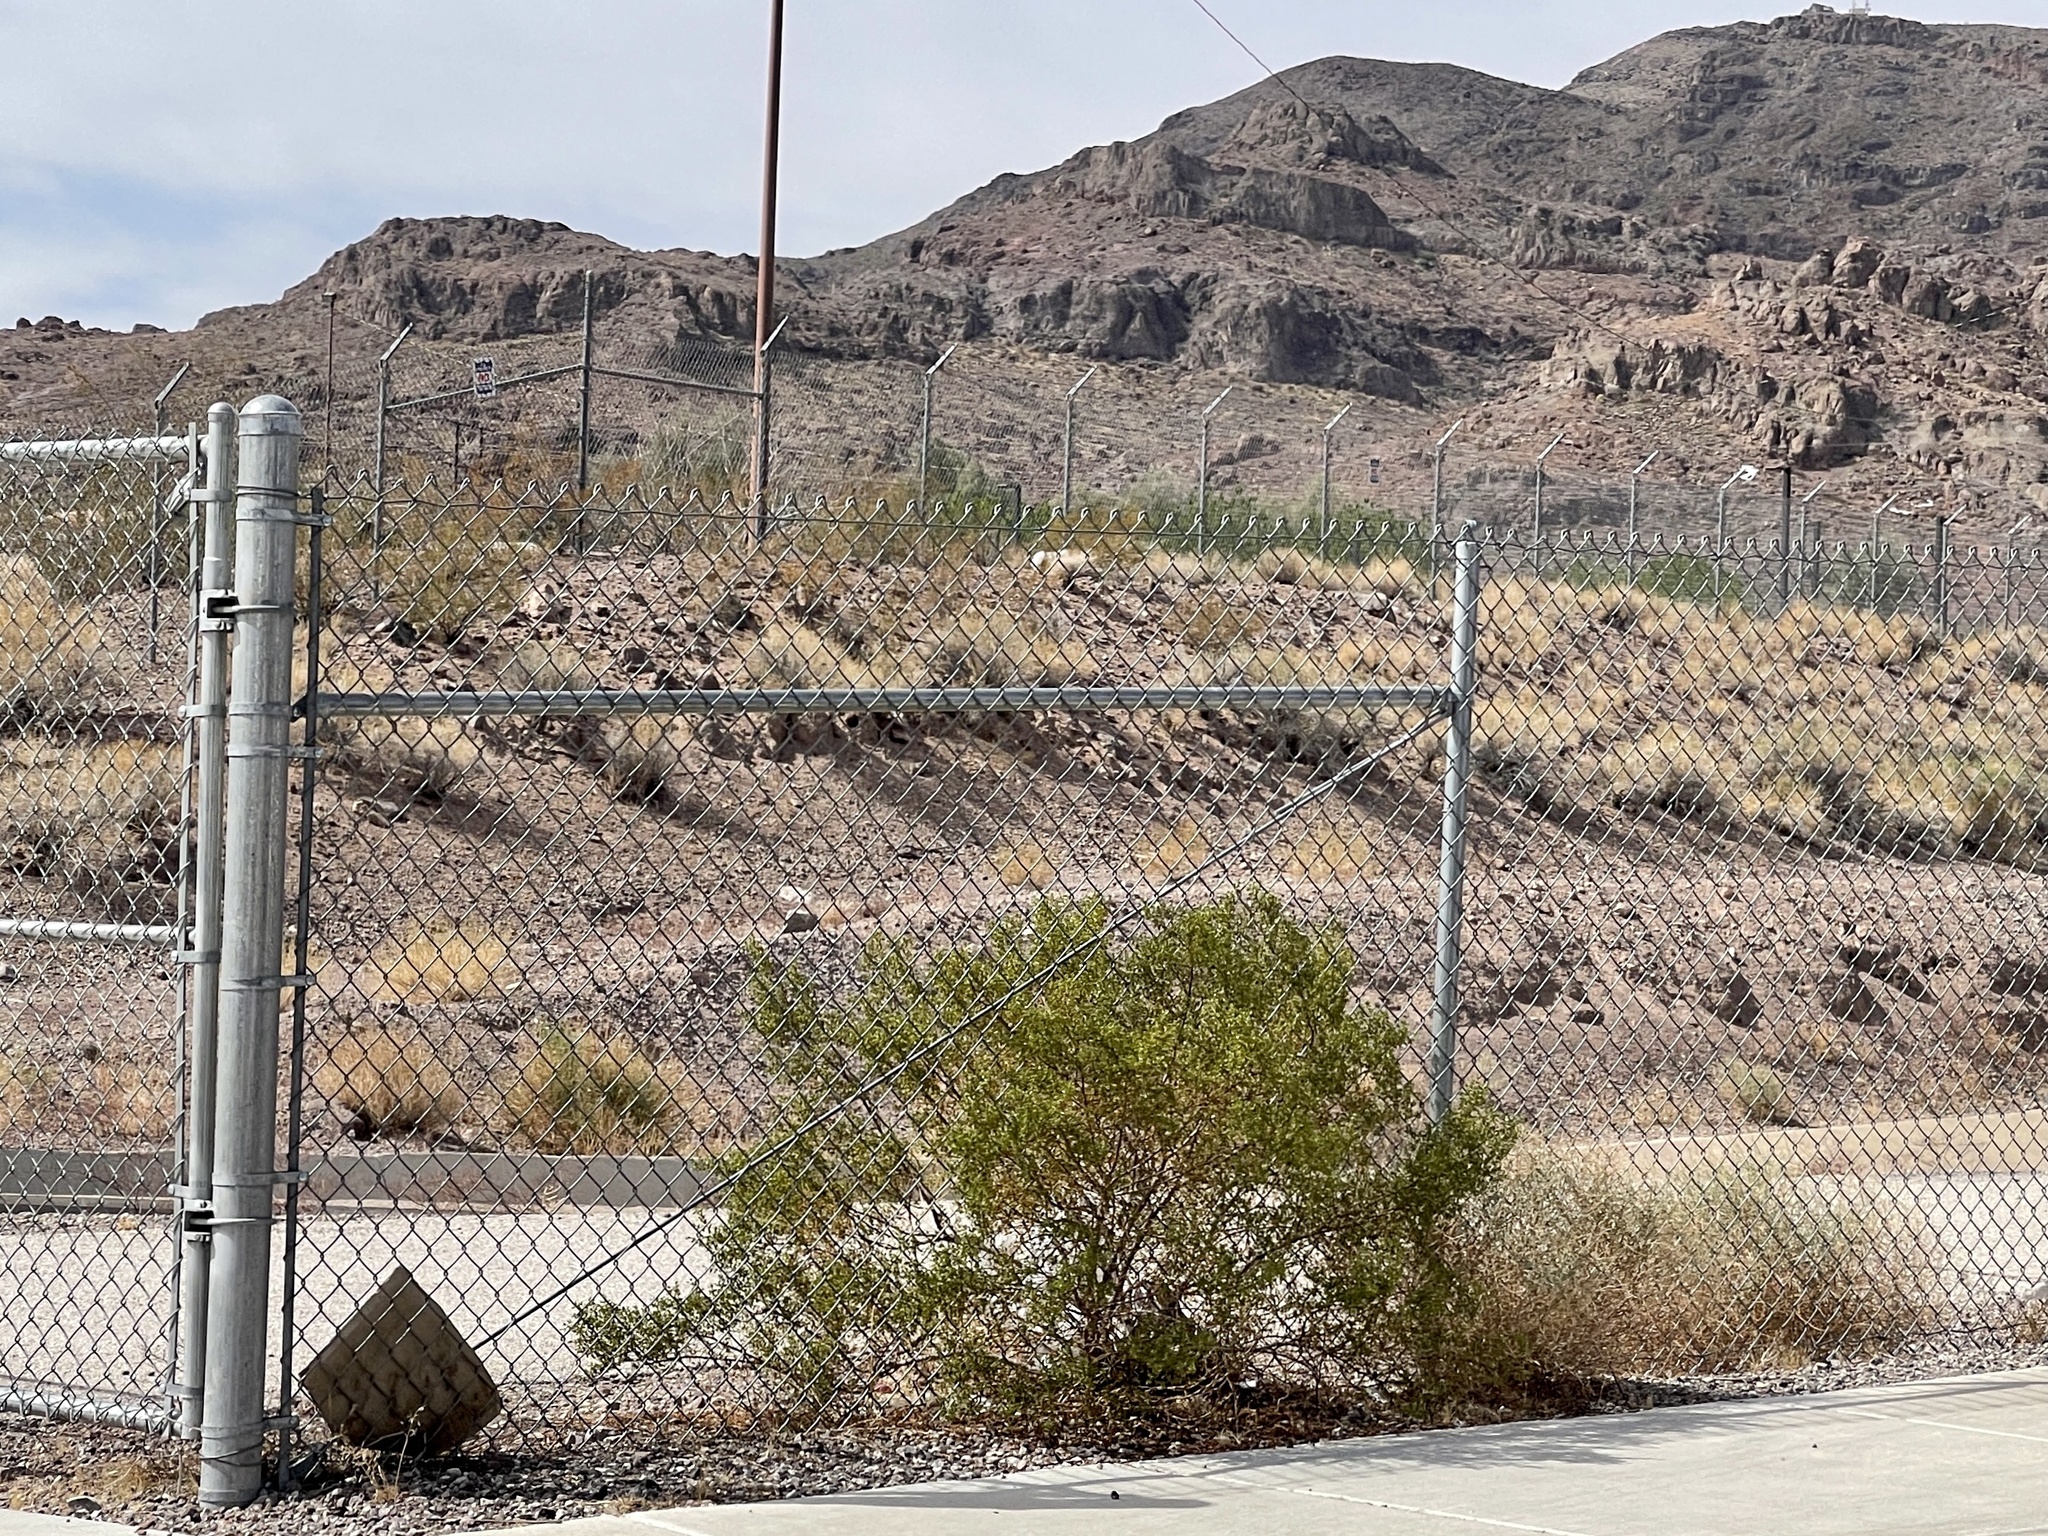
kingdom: Plantae
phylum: Tracheophyta
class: Magnoliopsida
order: Zygophyllales
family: Zygophyllaceae
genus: Larrea
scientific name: Larrea tridentata
